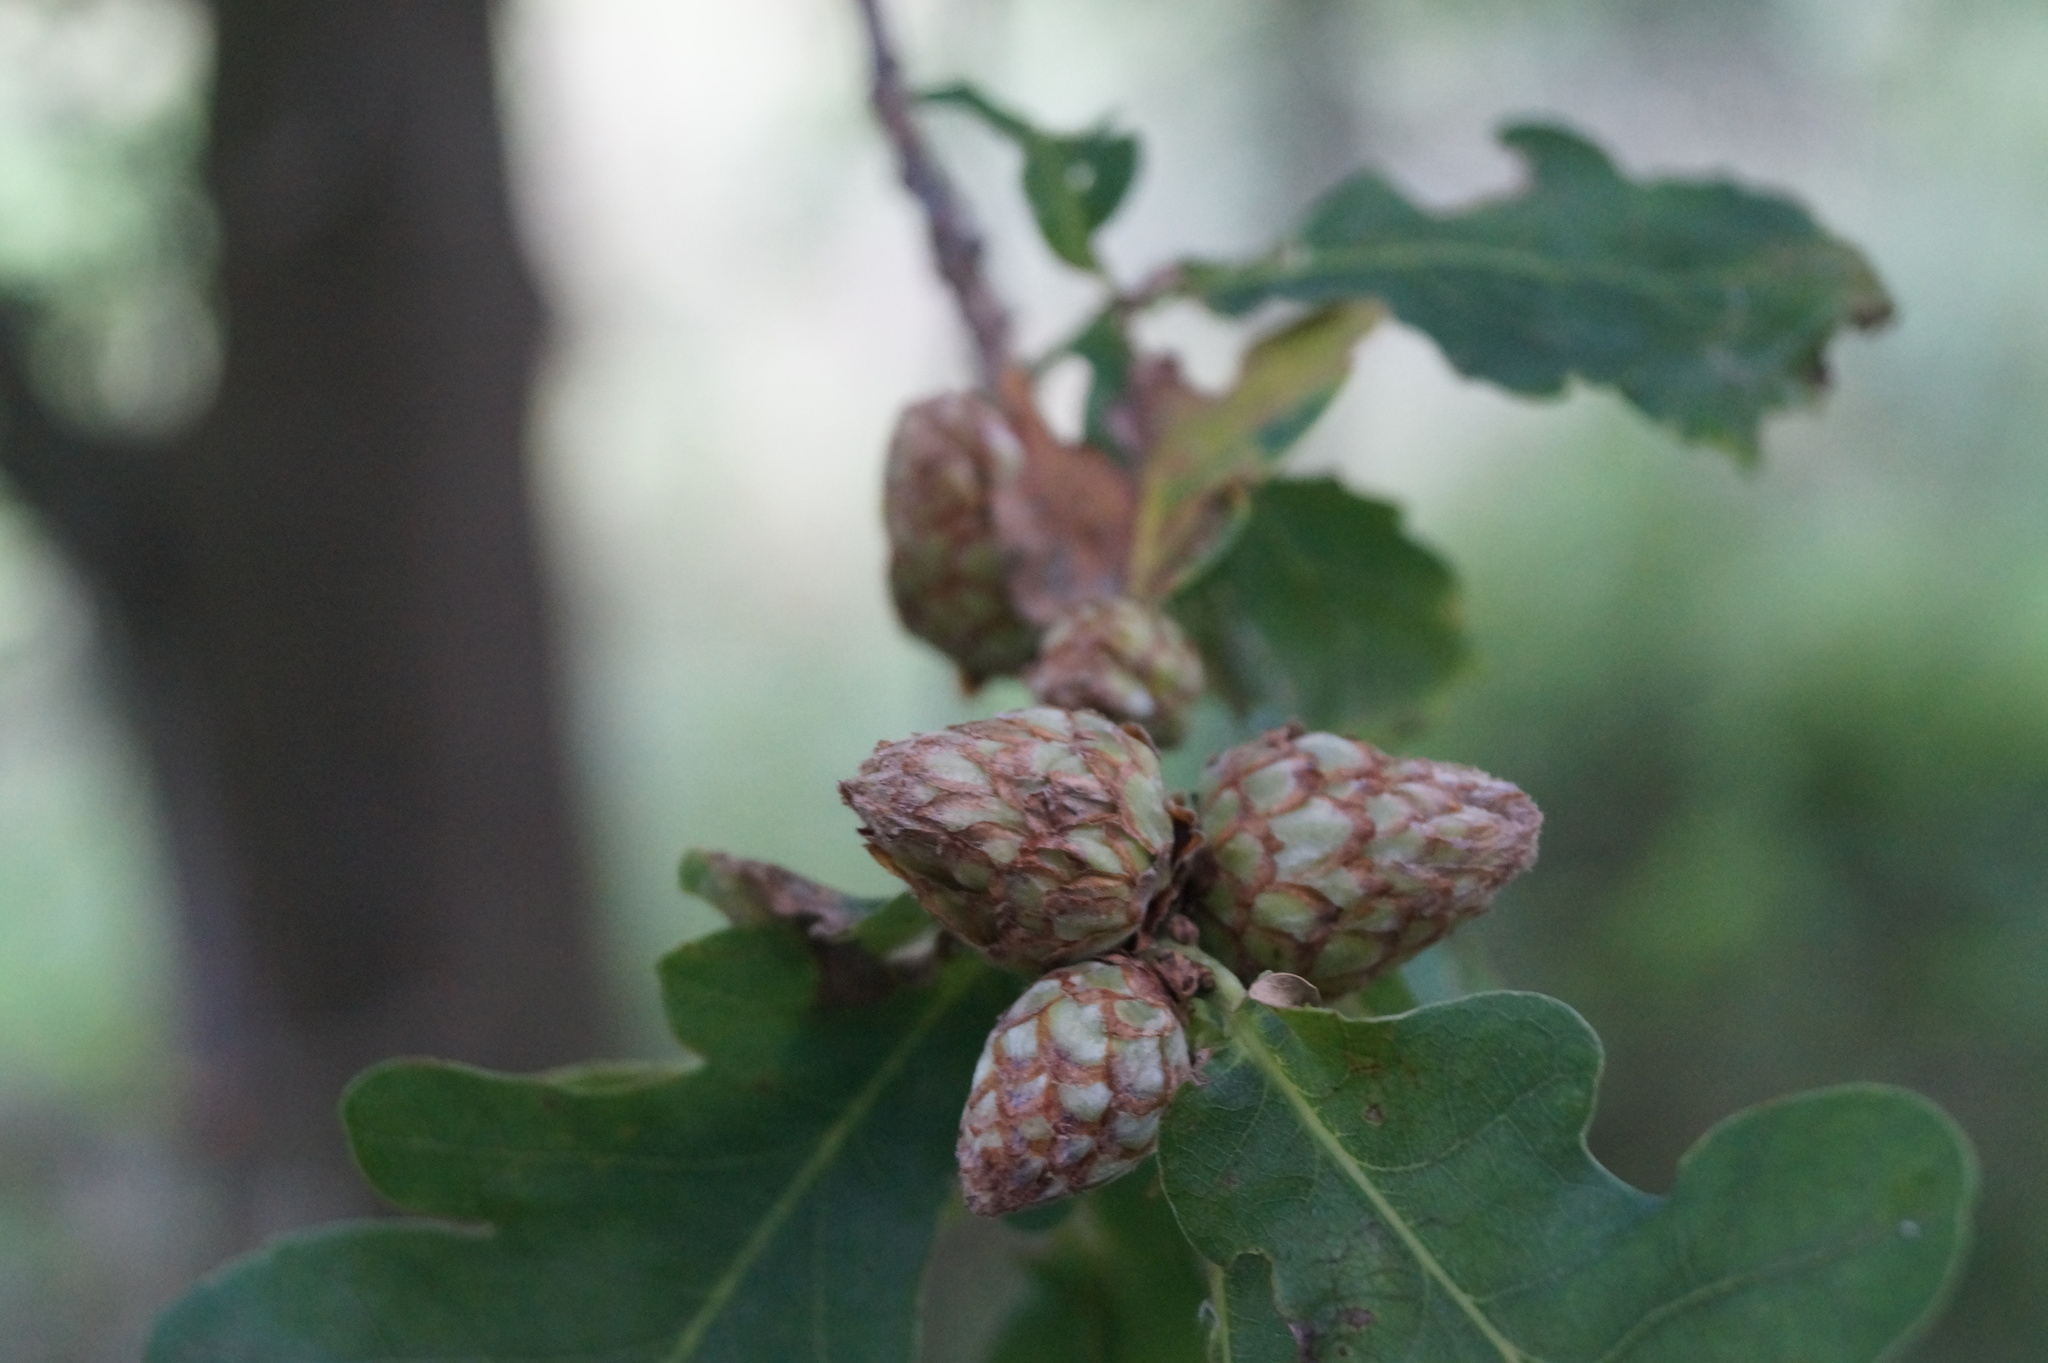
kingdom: Animalia
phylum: Arthropoda
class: Insecta
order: Hymenoptera
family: Cynipidae
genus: Andricus
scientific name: Andricus foecundatrix
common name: Artichoke gall
